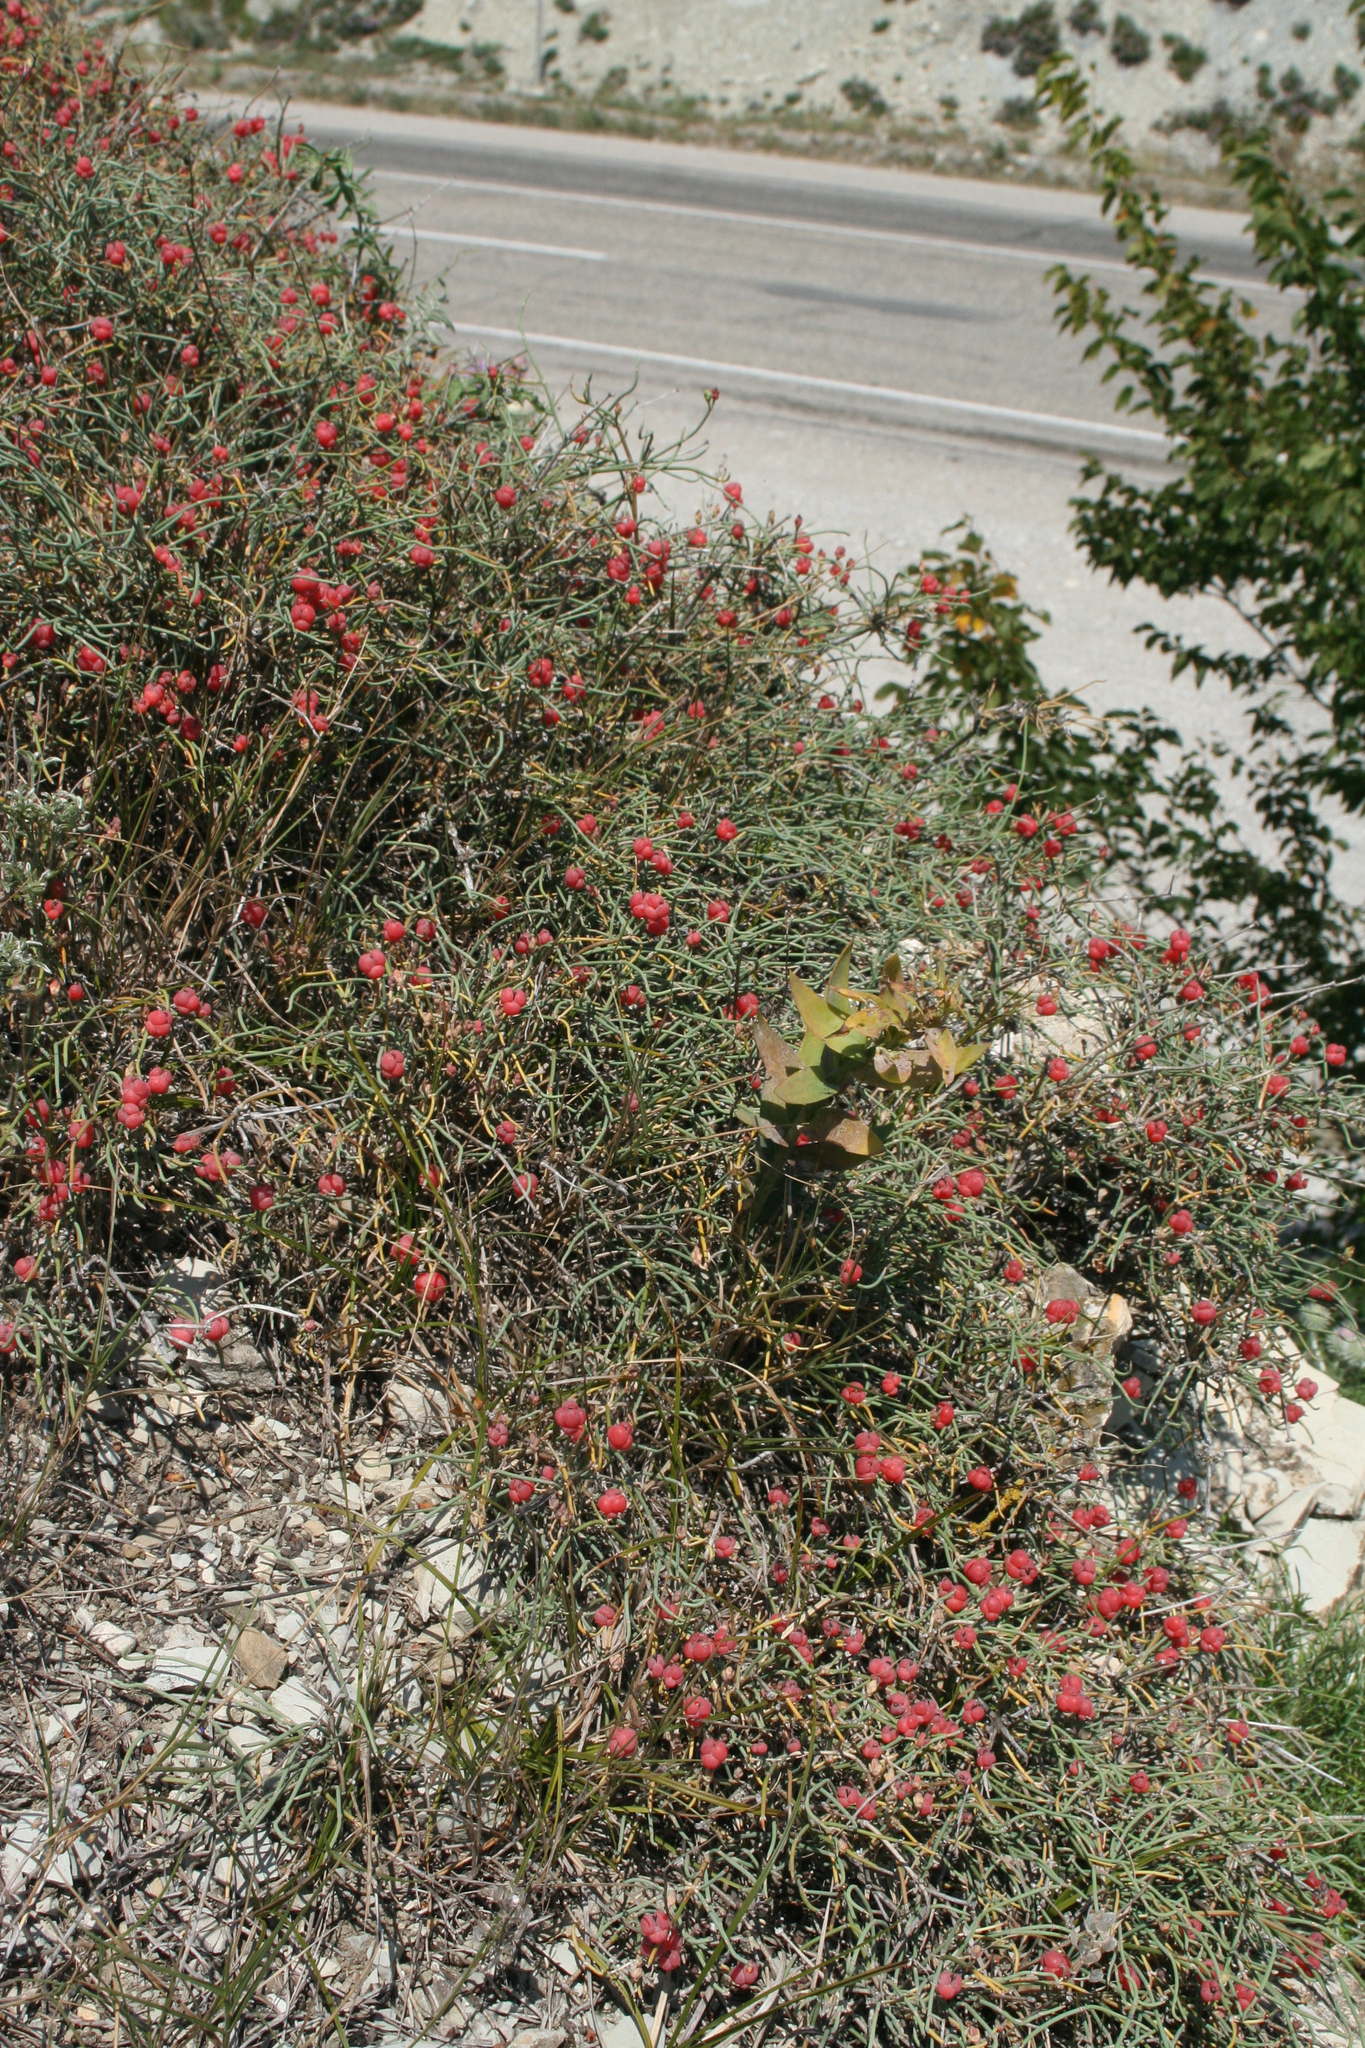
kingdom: Plantae
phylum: Tracheophyta
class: Gnetopsida
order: Ephedrales
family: Ephedraceae
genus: Ephedra
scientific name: Ephedra distachya
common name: Sea grape
